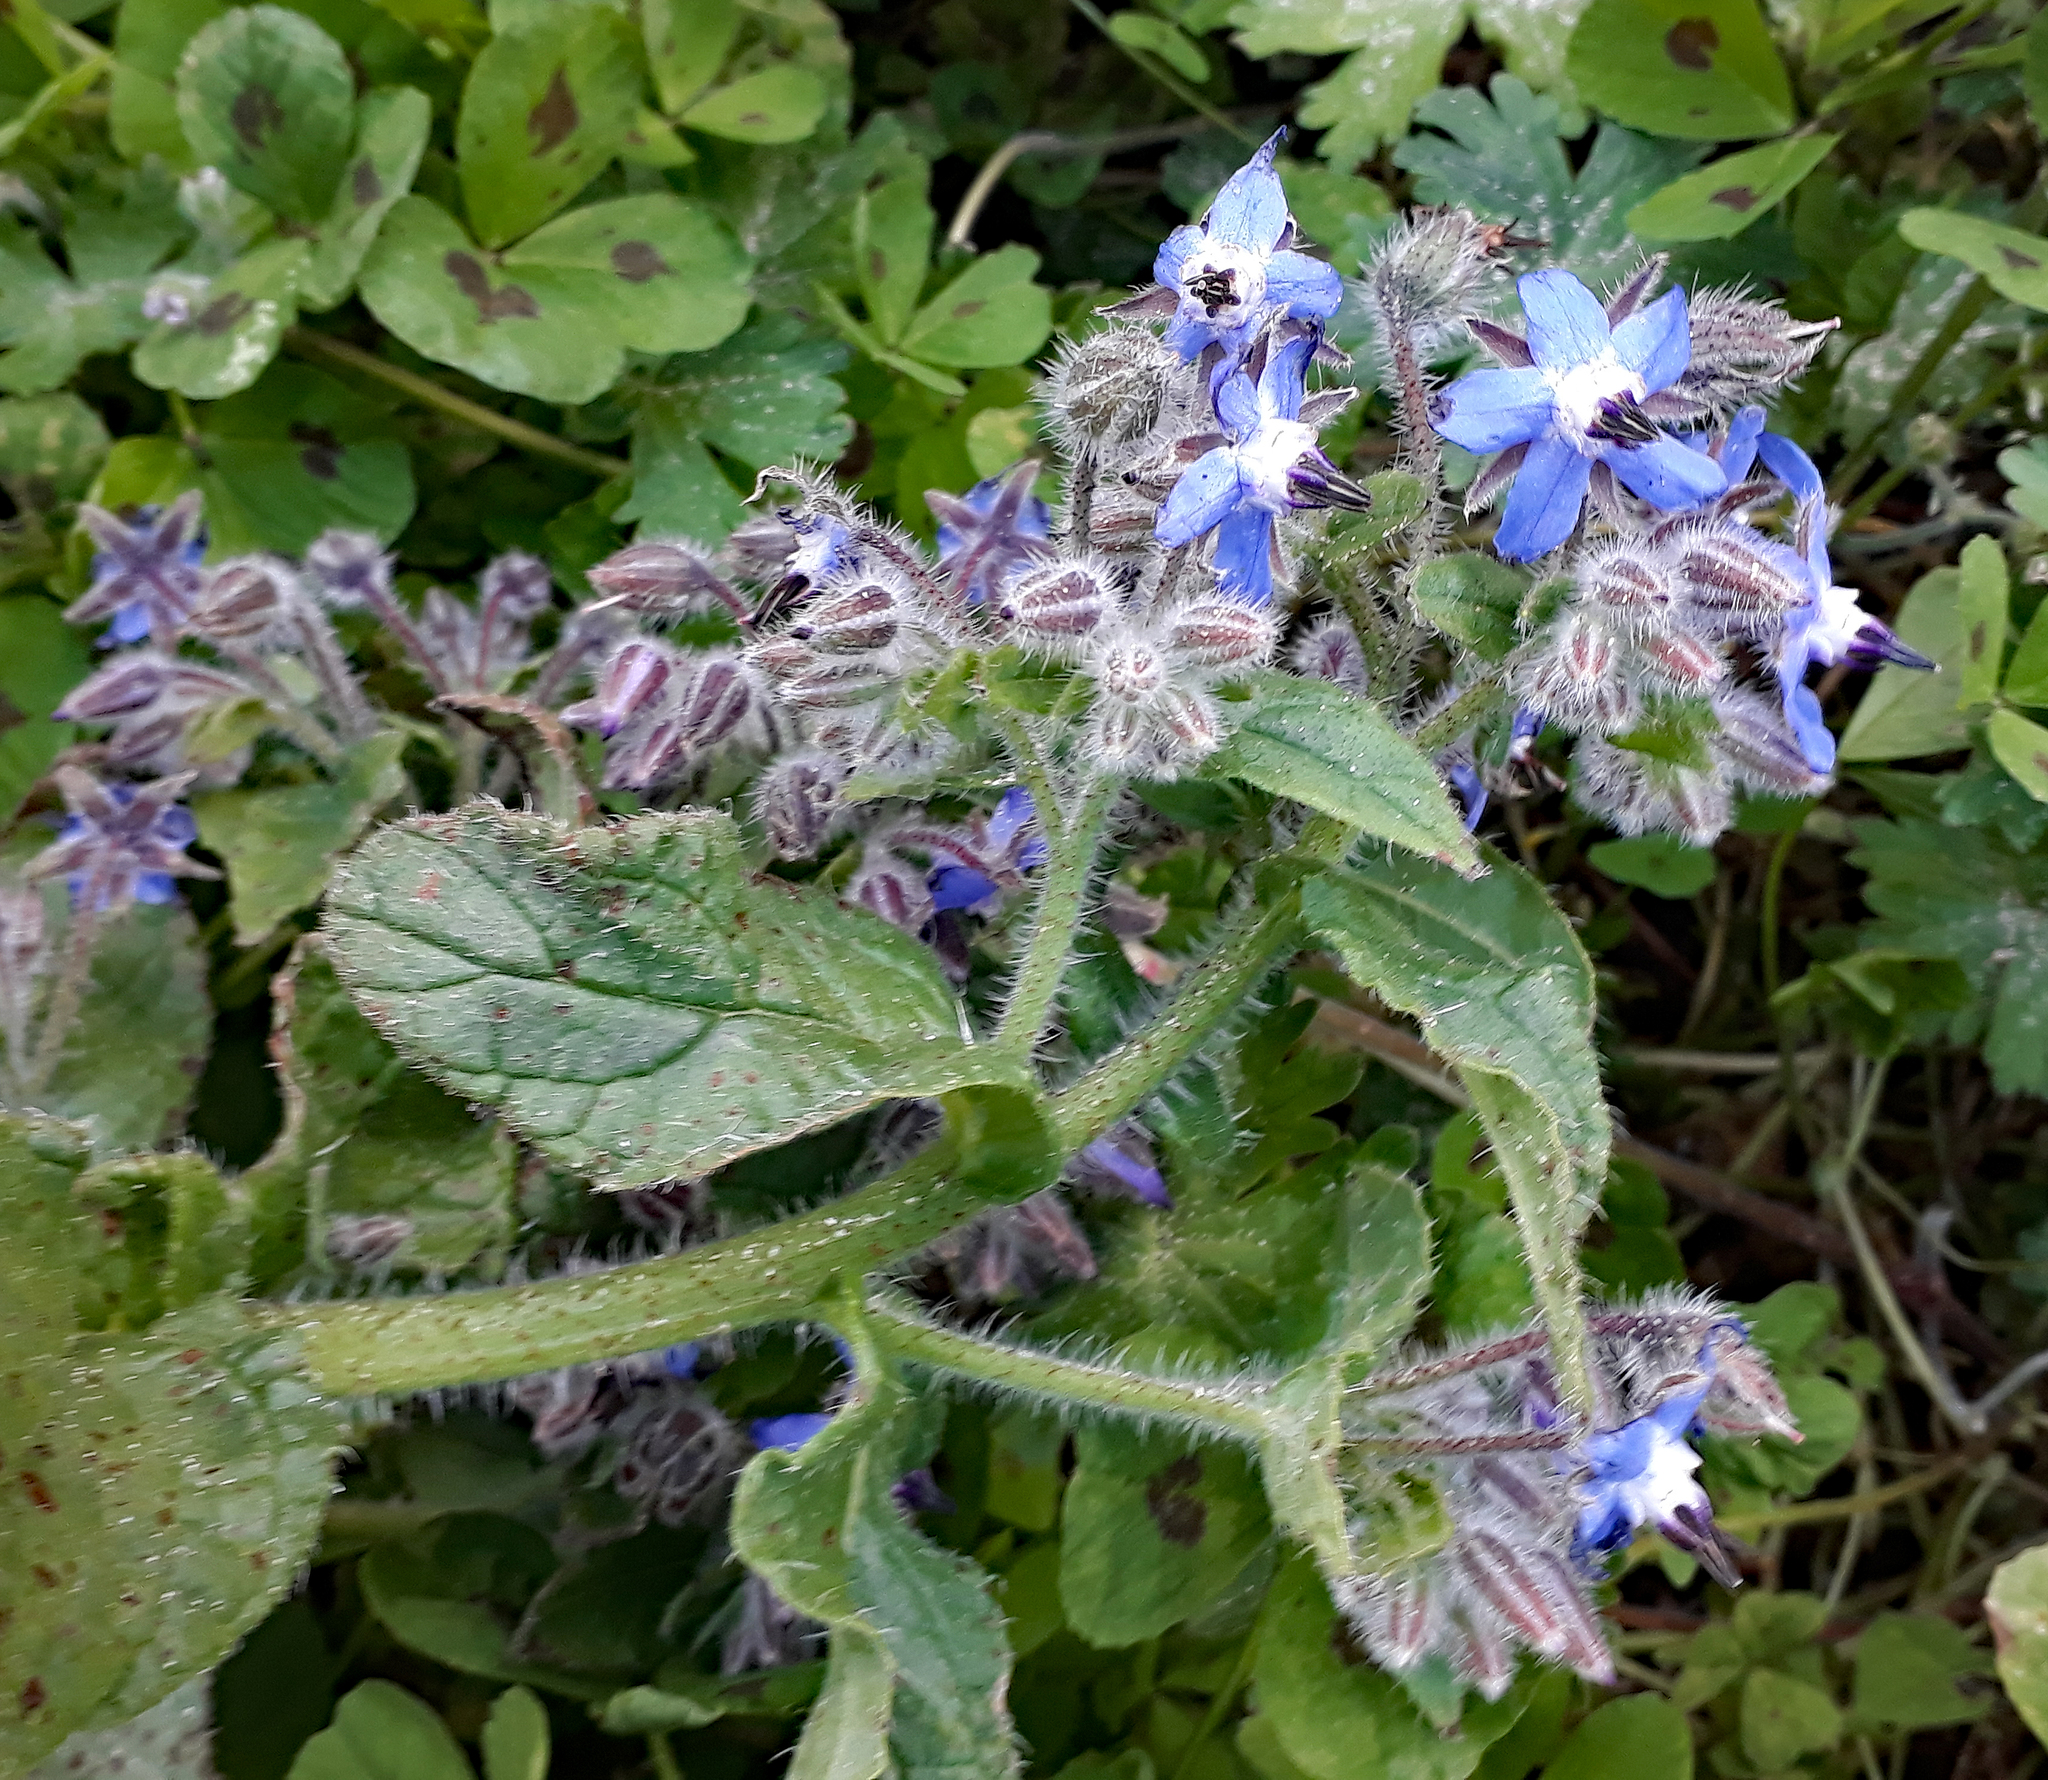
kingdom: Plantae
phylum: Tracheophyta
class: Magnoliopsida
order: Boraginales
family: Boraginaceae
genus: Borago
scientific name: Borago officinalis
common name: Borage
